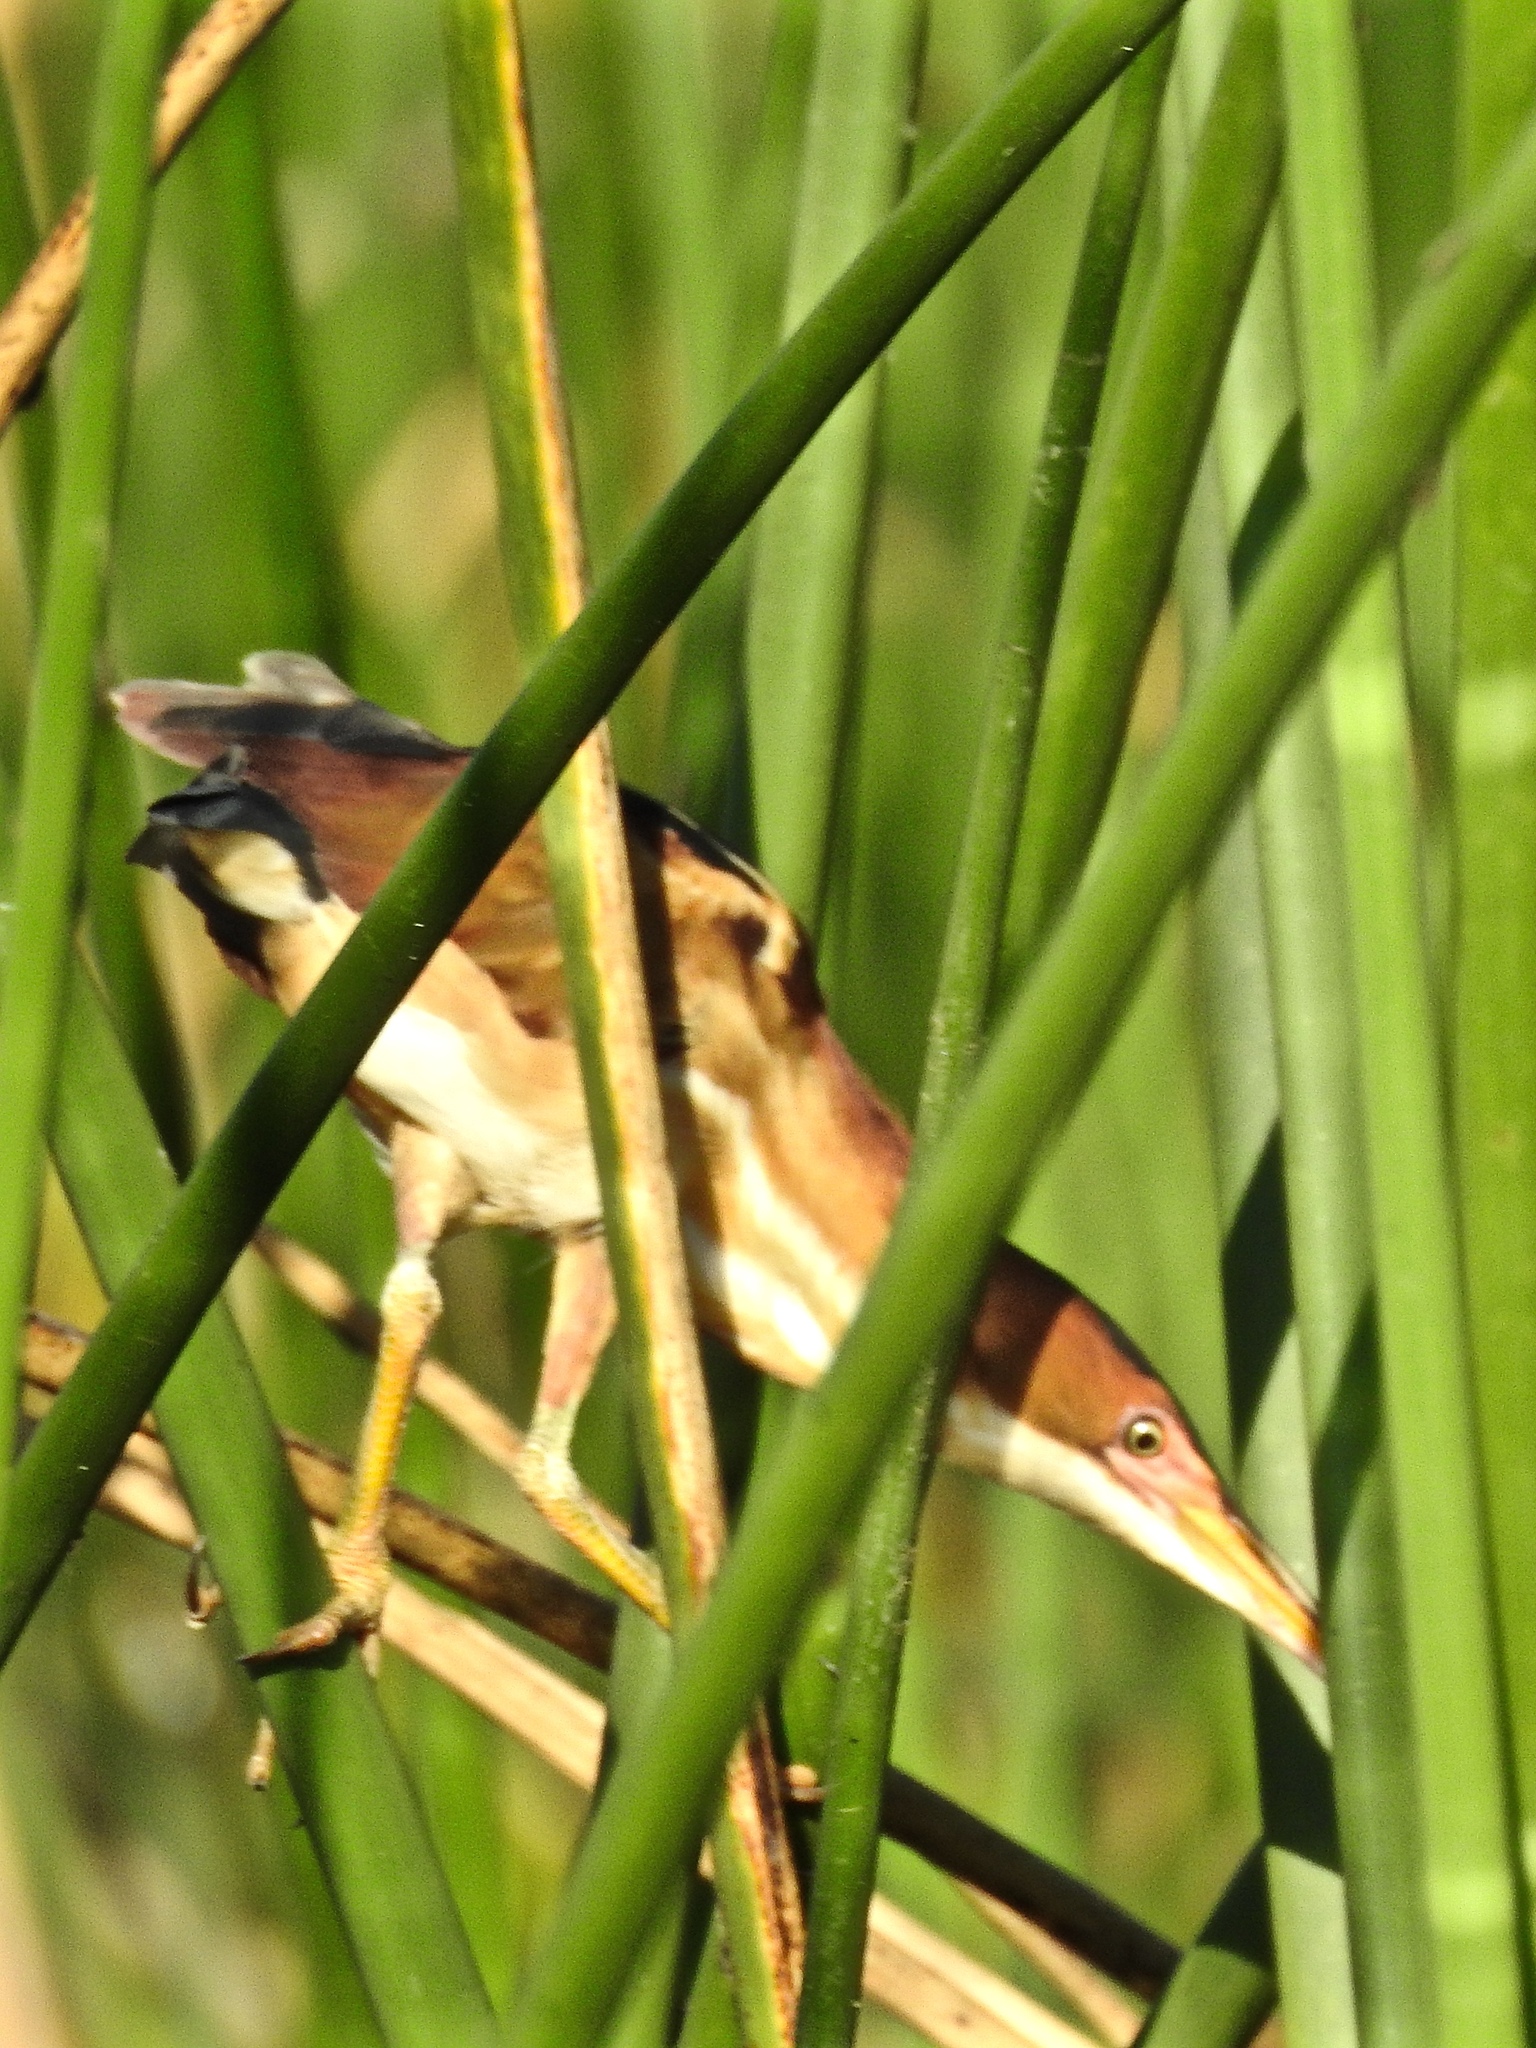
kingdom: Animalia
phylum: Chordata
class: Aves
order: Pelecaniformes
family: Ardeidae
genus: Ixobrychus
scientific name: Ixobrychus exilis
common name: Least bittern
